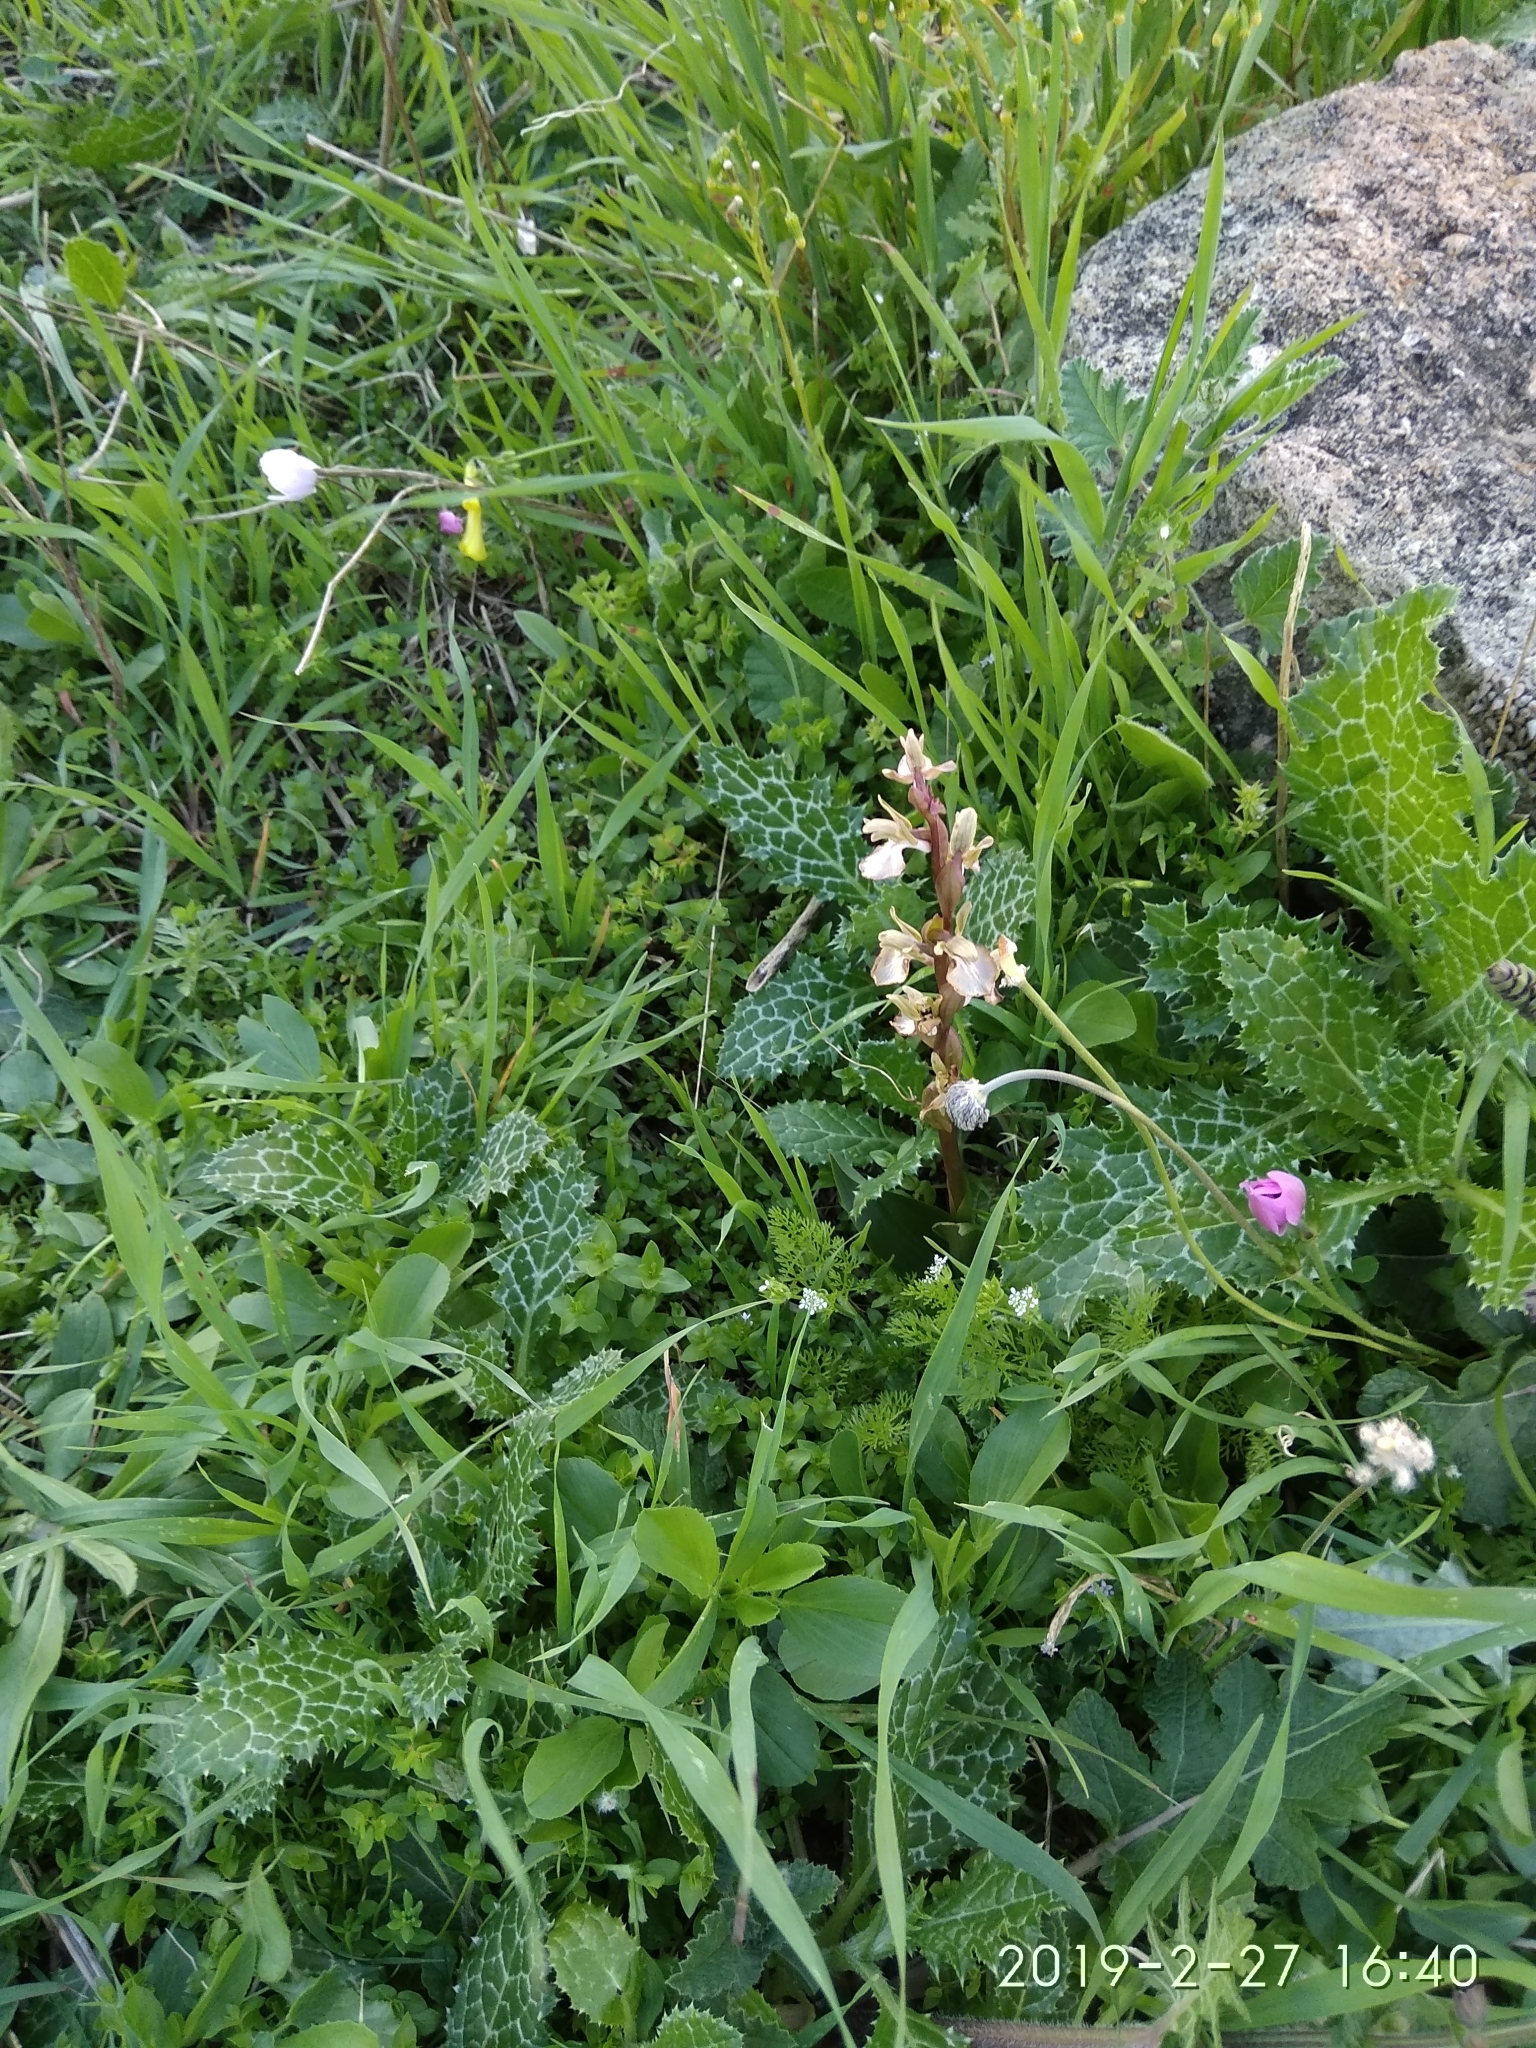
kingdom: Plantae
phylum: Tracheophyta
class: Liliopsida
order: Asparagales
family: Orchidaceae
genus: Anacamptis
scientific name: Anacamptis collina
